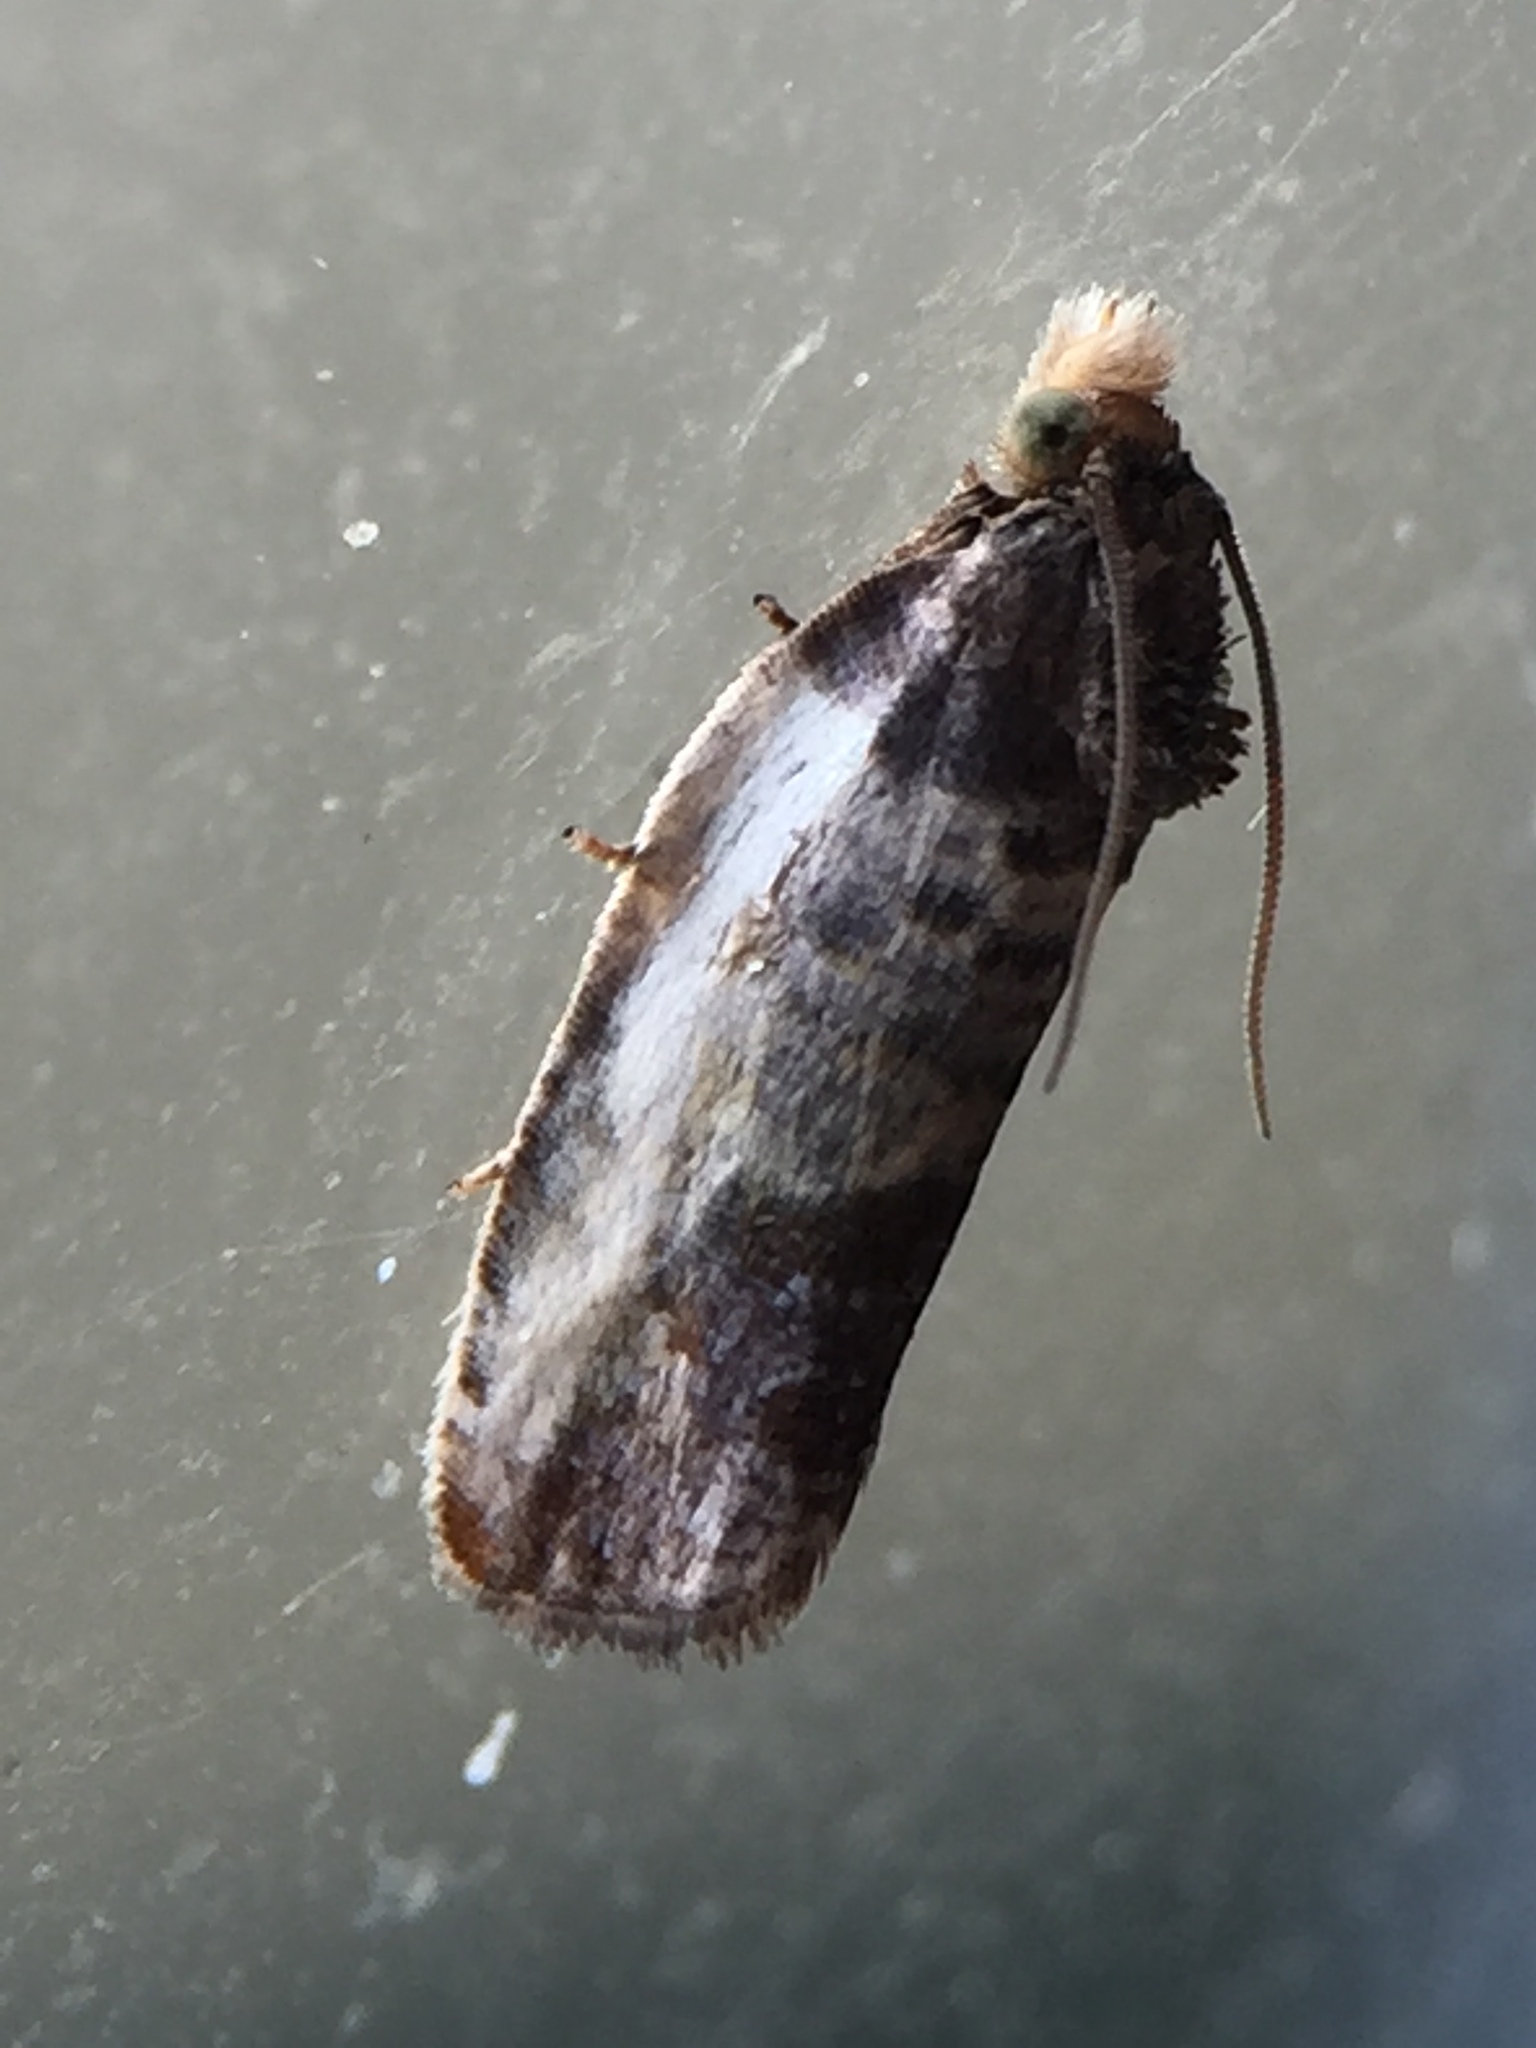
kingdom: Animalia
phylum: Arthropoda
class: Insecta
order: Lepidoptera
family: Tortricidae
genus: Argyroploce
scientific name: Argyroploce chlorosaris
